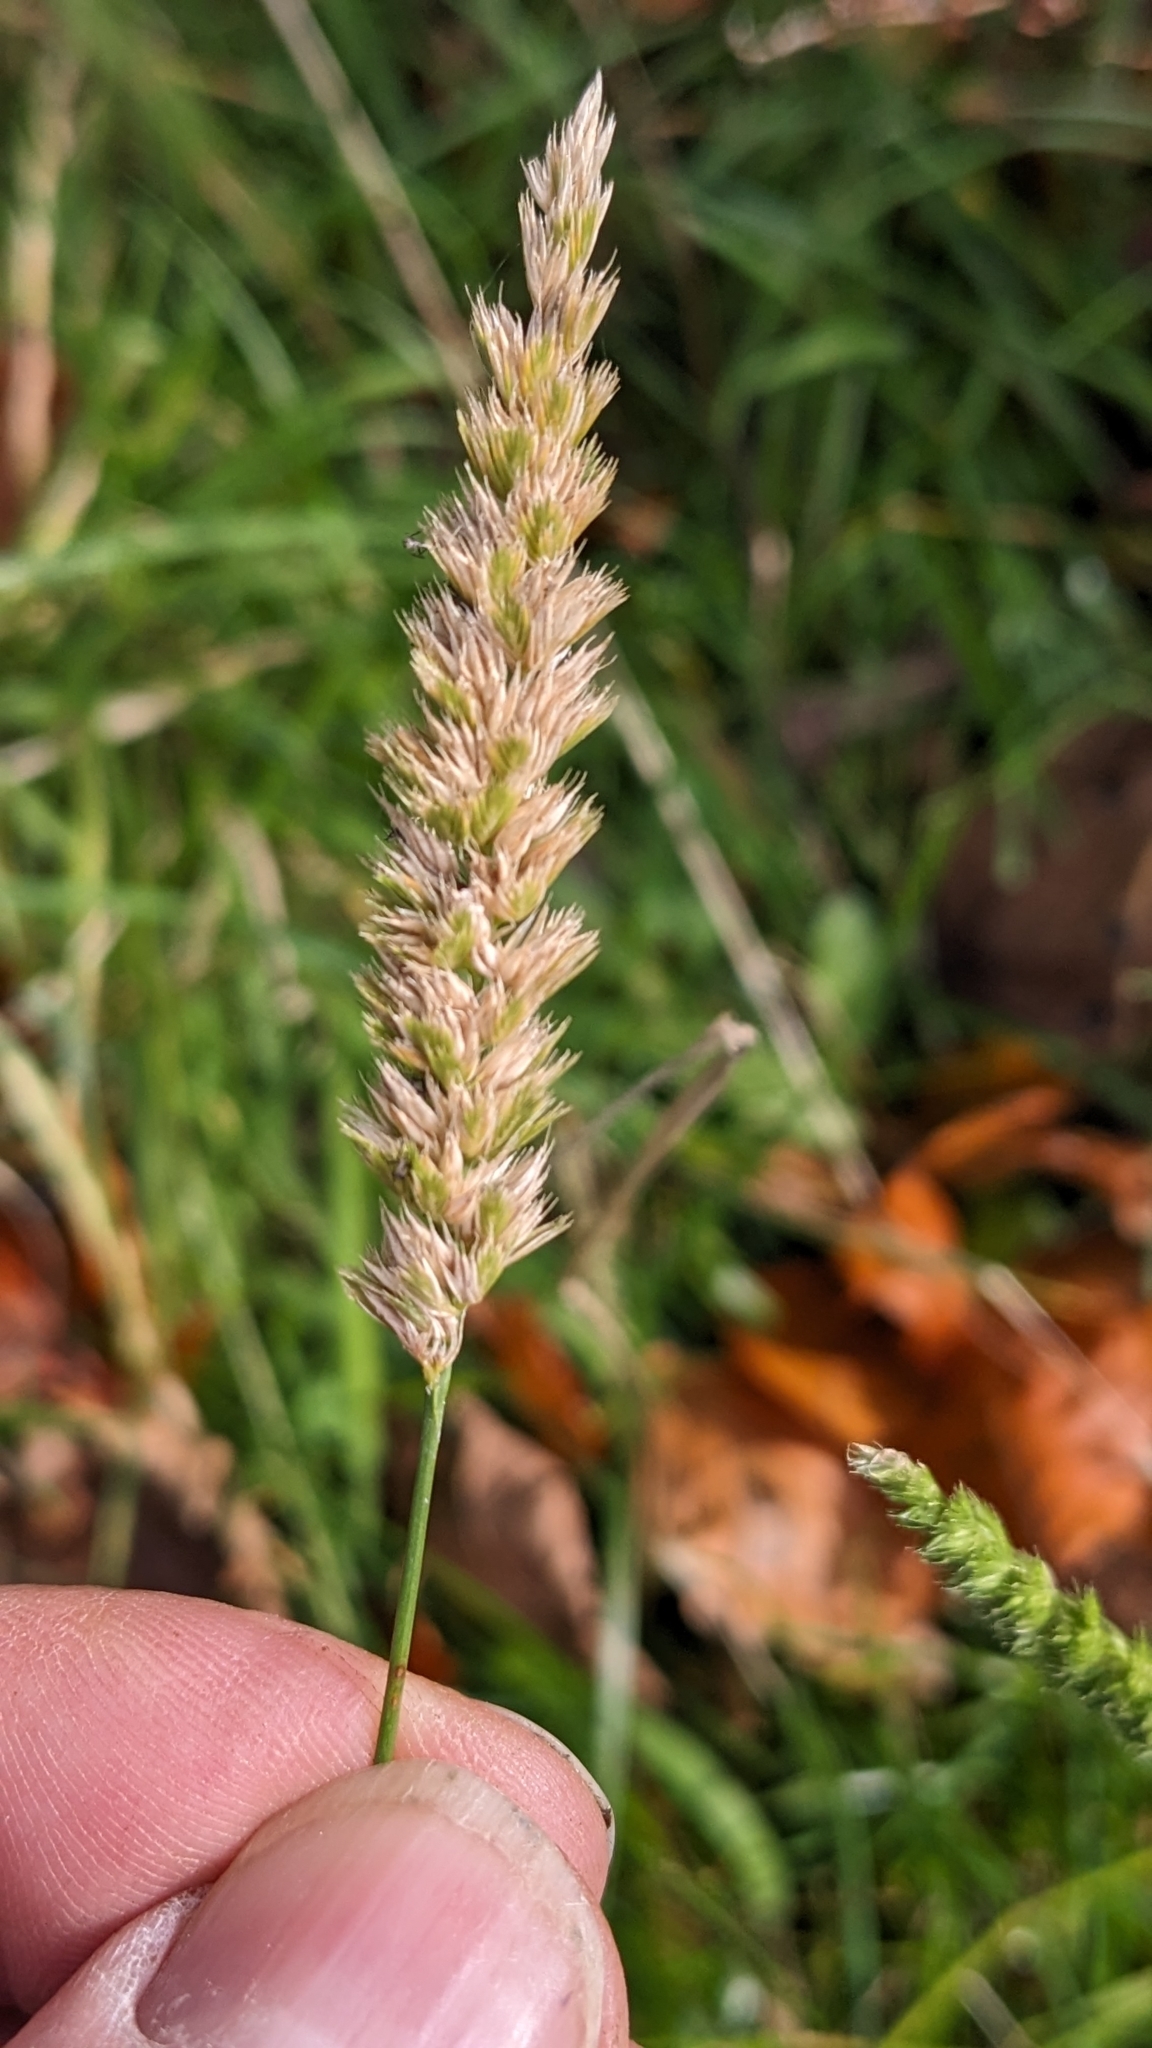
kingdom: Plantae
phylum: Tracheophyta
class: Liliopsida
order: Poales
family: Poaceae
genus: Cynosurus
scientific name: Cynosurus cristatus
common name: Crested dog's-tail
